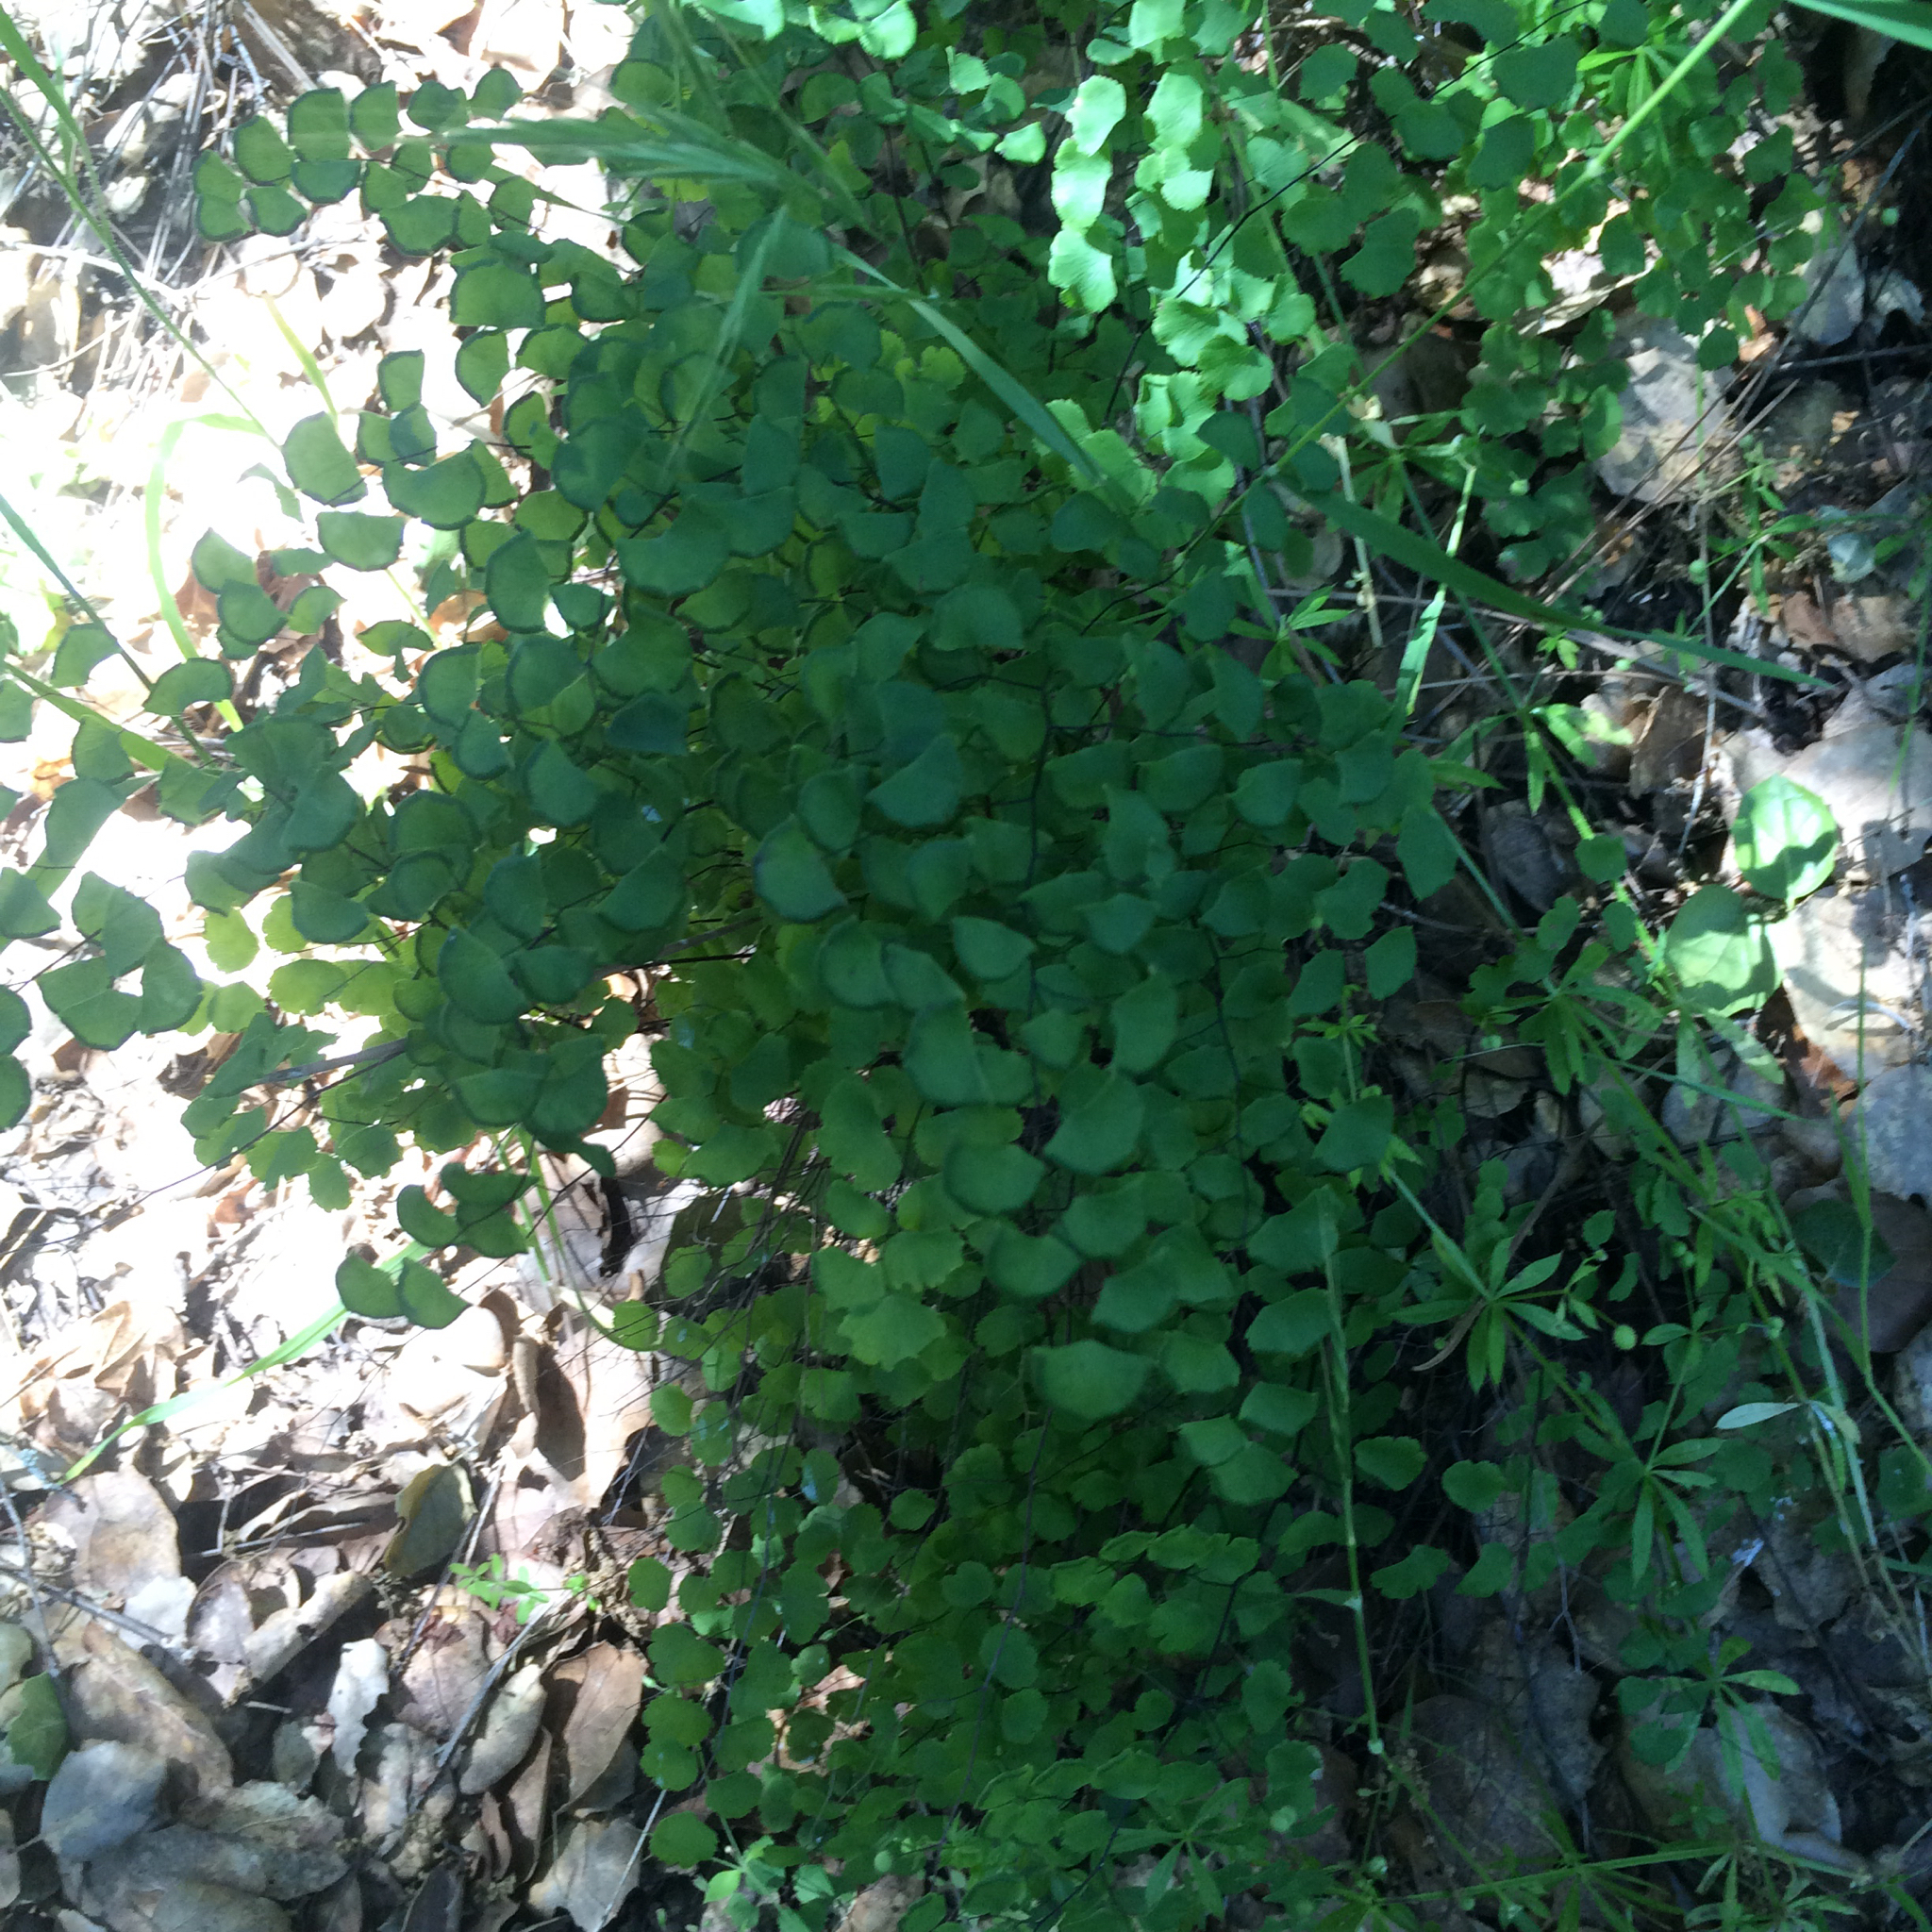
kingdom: Plantae
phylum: Tracheophyta
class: Polypodiopsida
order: Polypodiales
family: Pteridaceae
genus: Adiantum
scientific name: Adiantum jordanii
